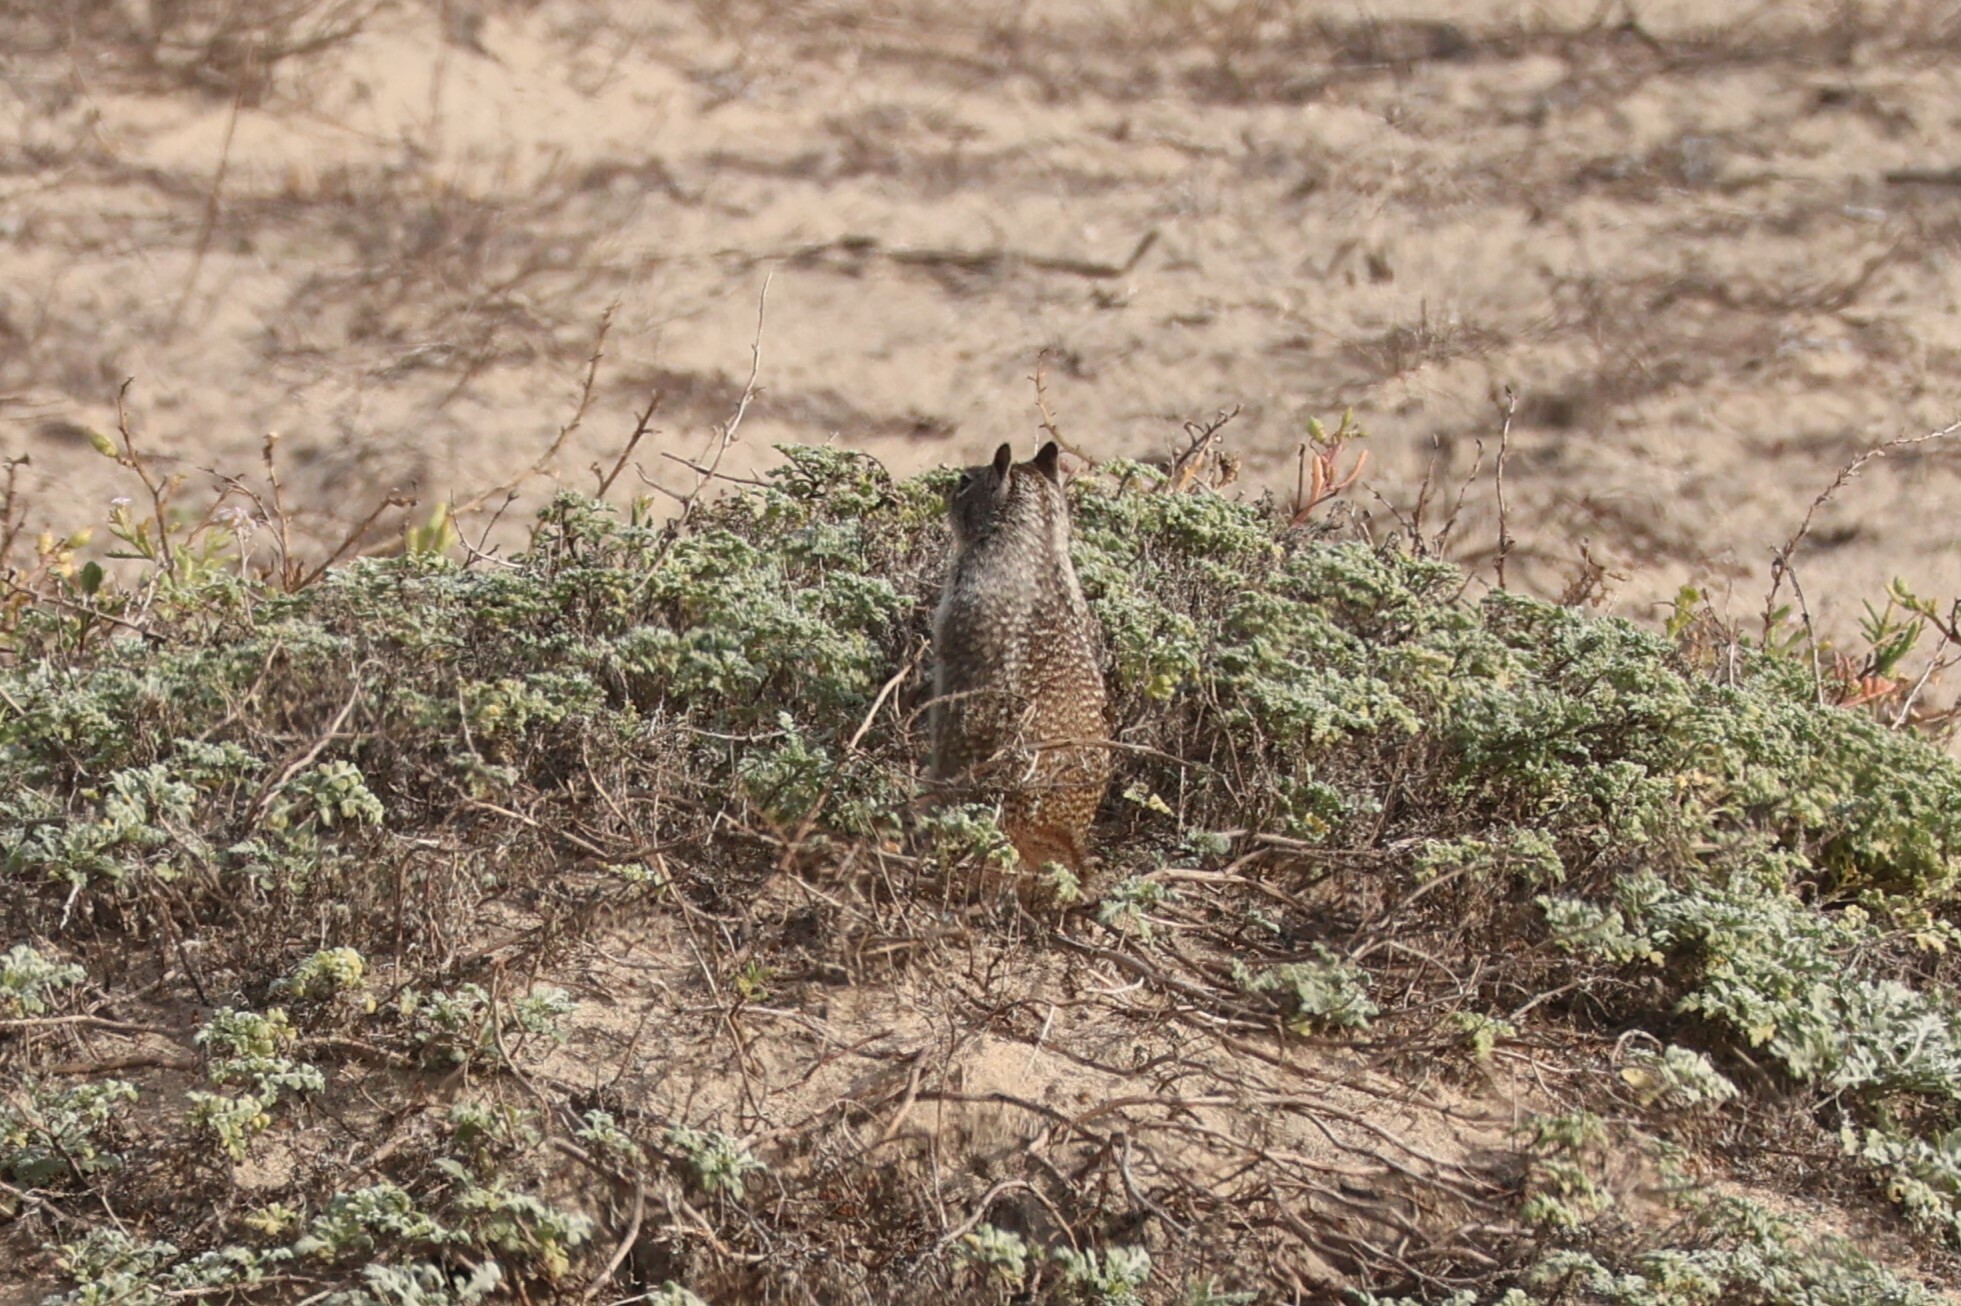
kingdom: Animalia
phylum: Chordata
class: Mammalia
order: Rodentia
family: Sciuridae
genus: Otospermophilus
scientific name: Otospermophilus beecheyi
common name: California ground squirrel
